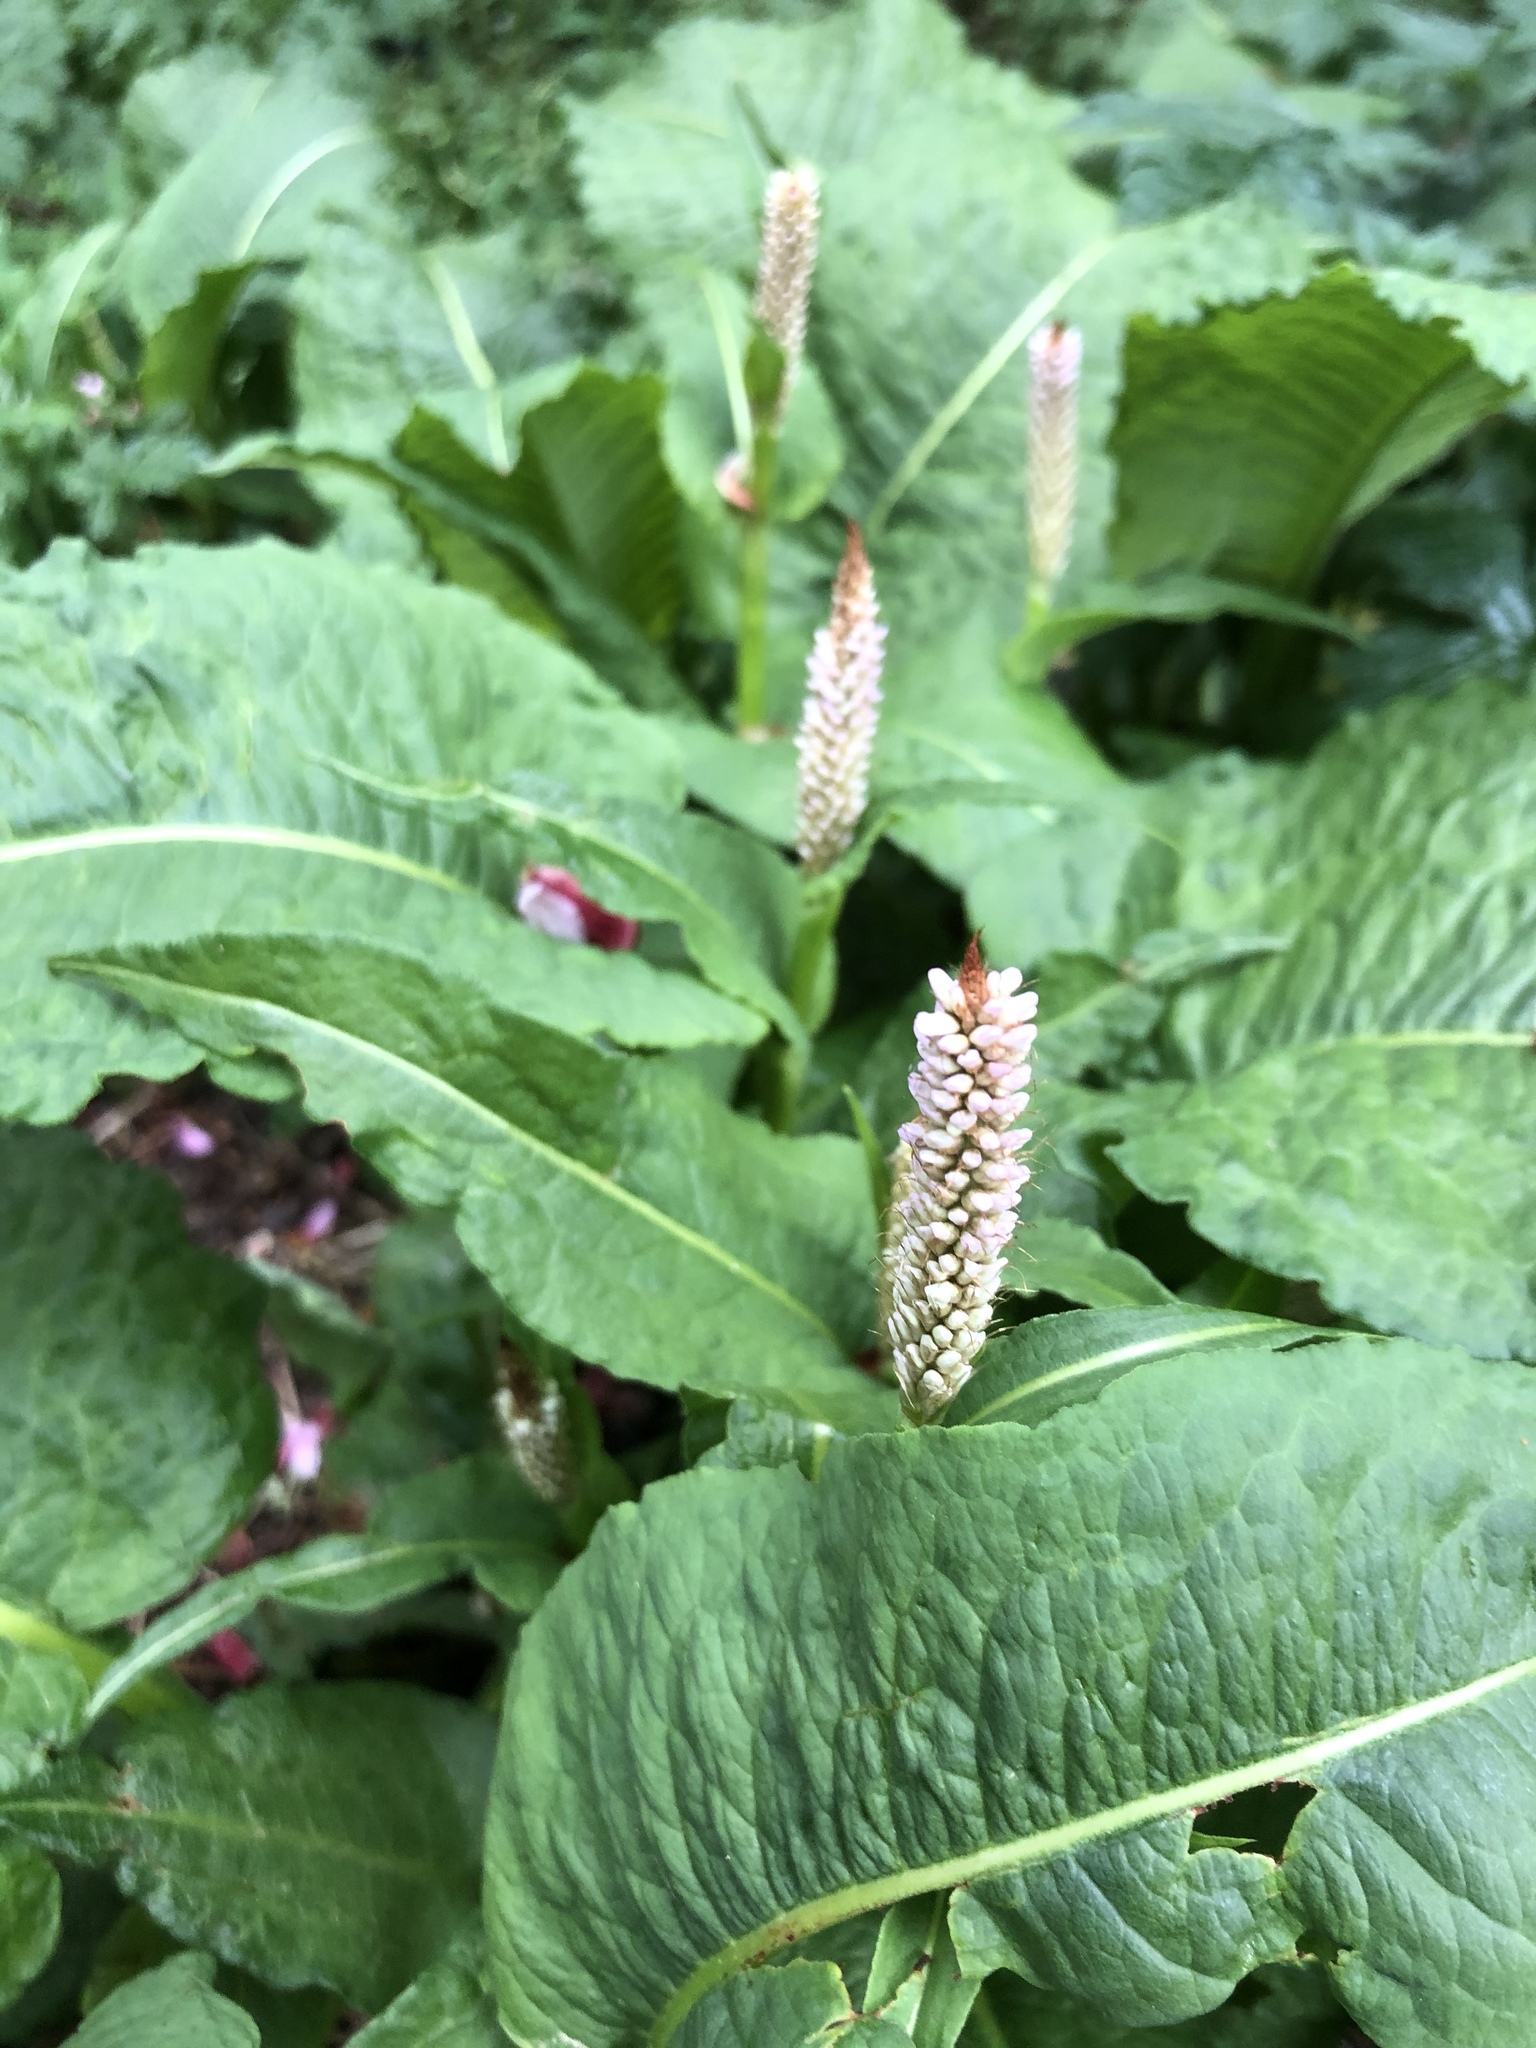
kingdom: Plantae
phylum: Tracheophyta
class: Magnoliopsida
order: Caryophyllales
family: Polygonaceae
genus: Bistorta
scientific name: Bistorta officinalis
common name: Common bistort
